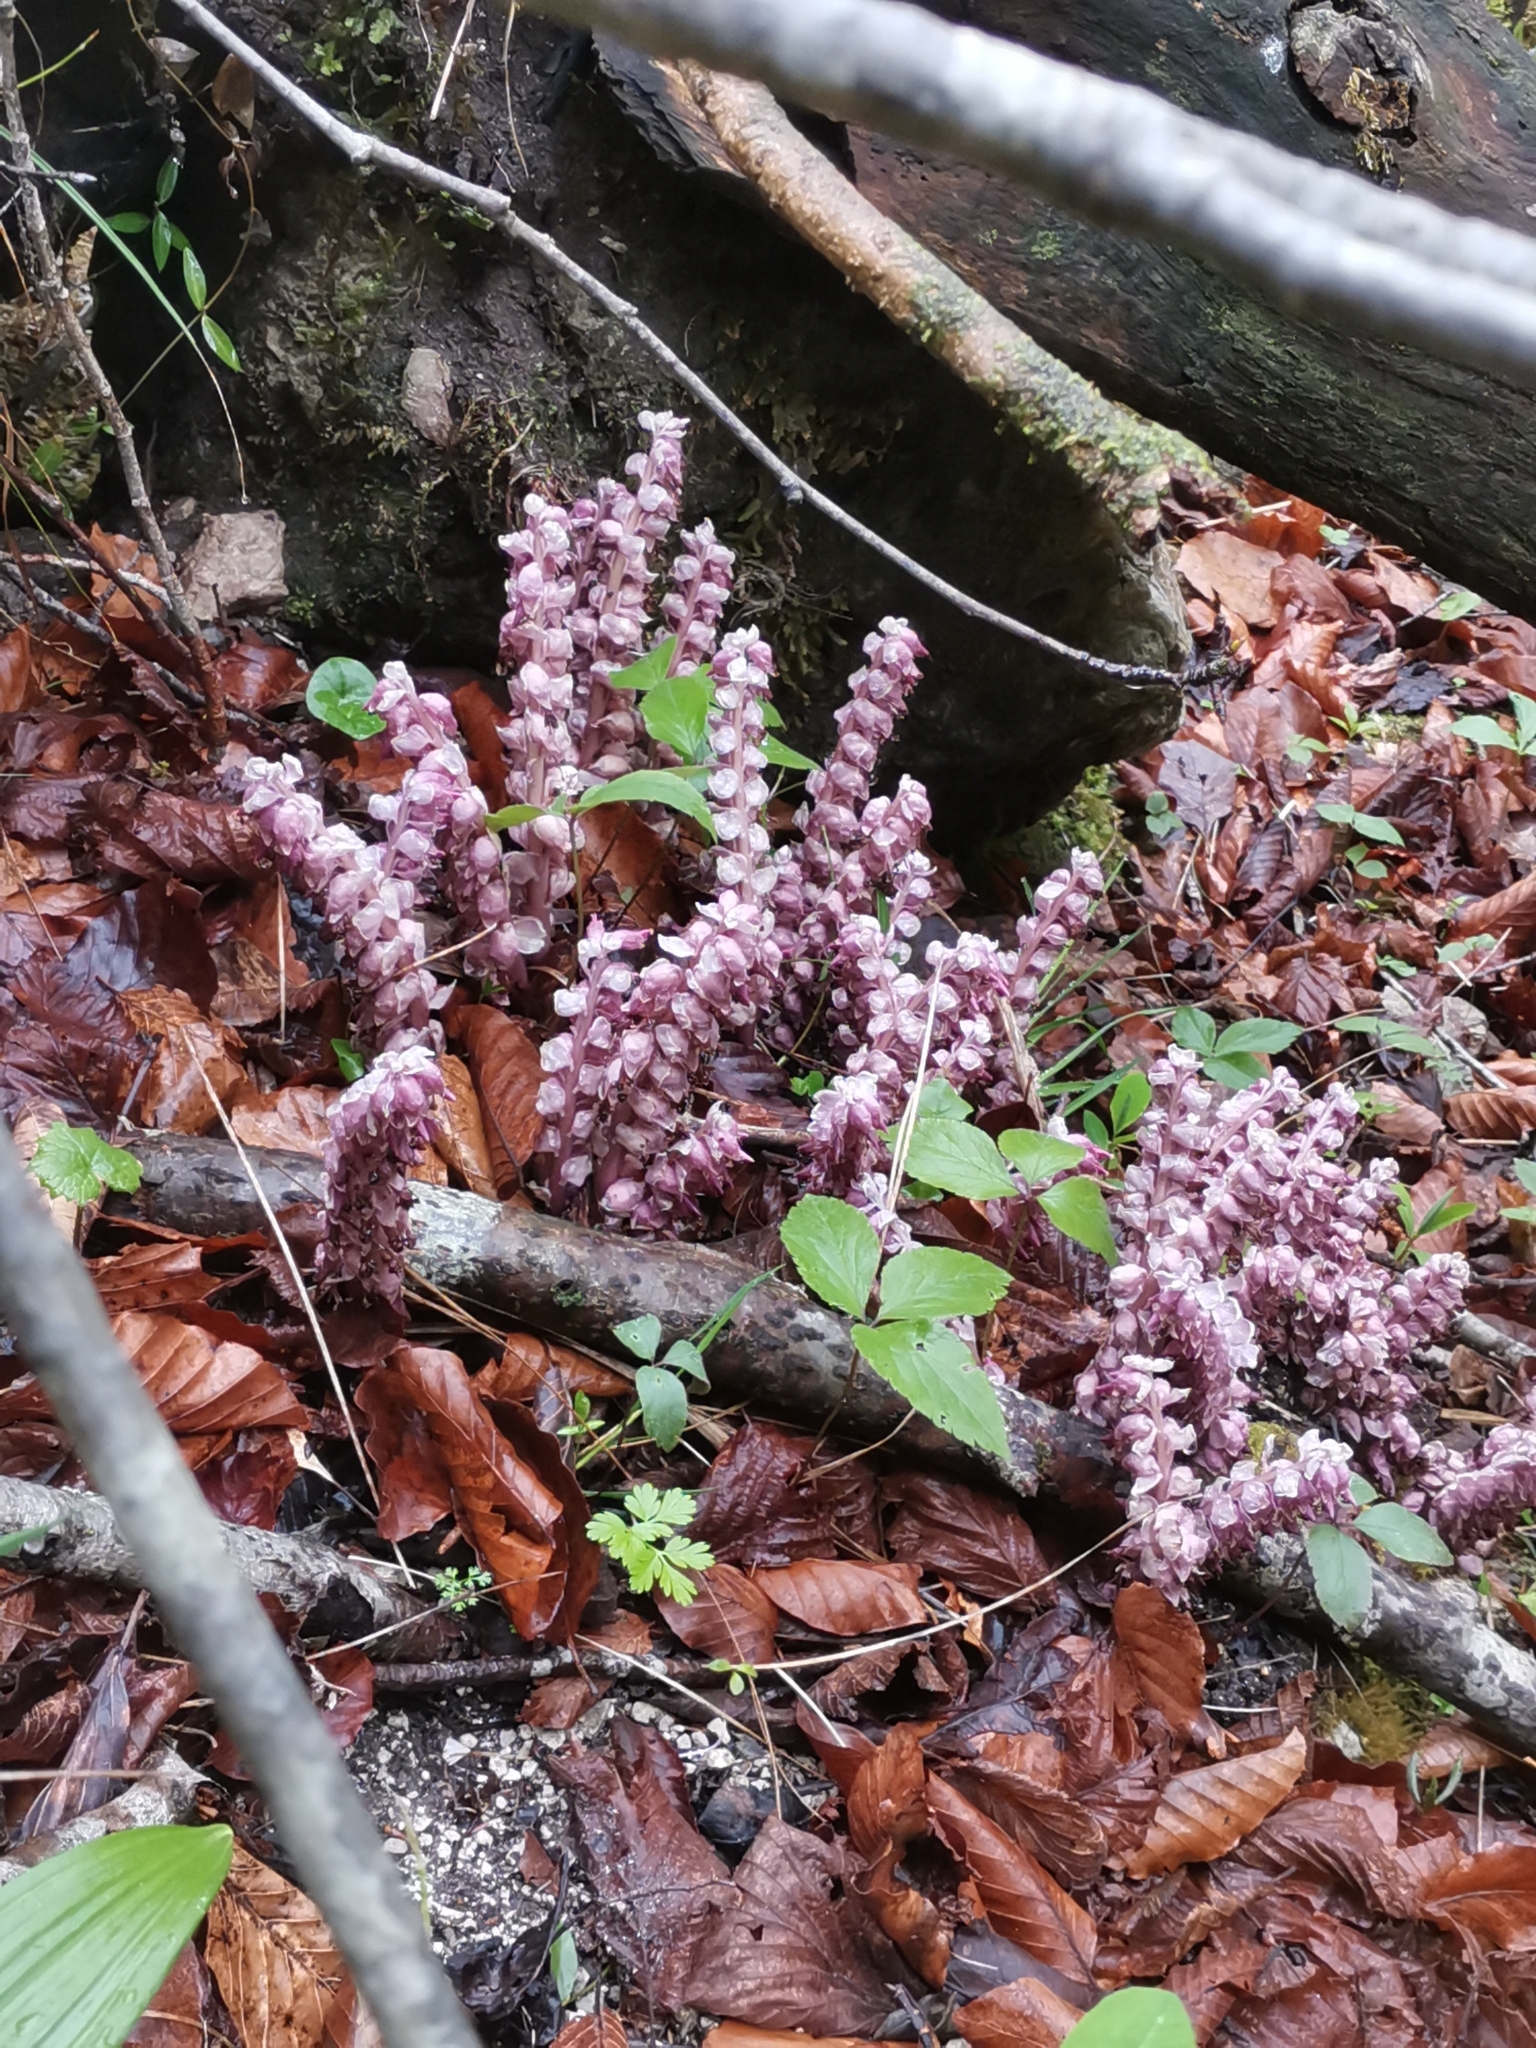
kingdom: Plantae
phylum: Tracheophyta
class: Magnoliopsida
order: Lamiales
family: Orobanchaceae
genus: Lathraea
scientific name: Lathraea squamaria
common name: Toothwort
